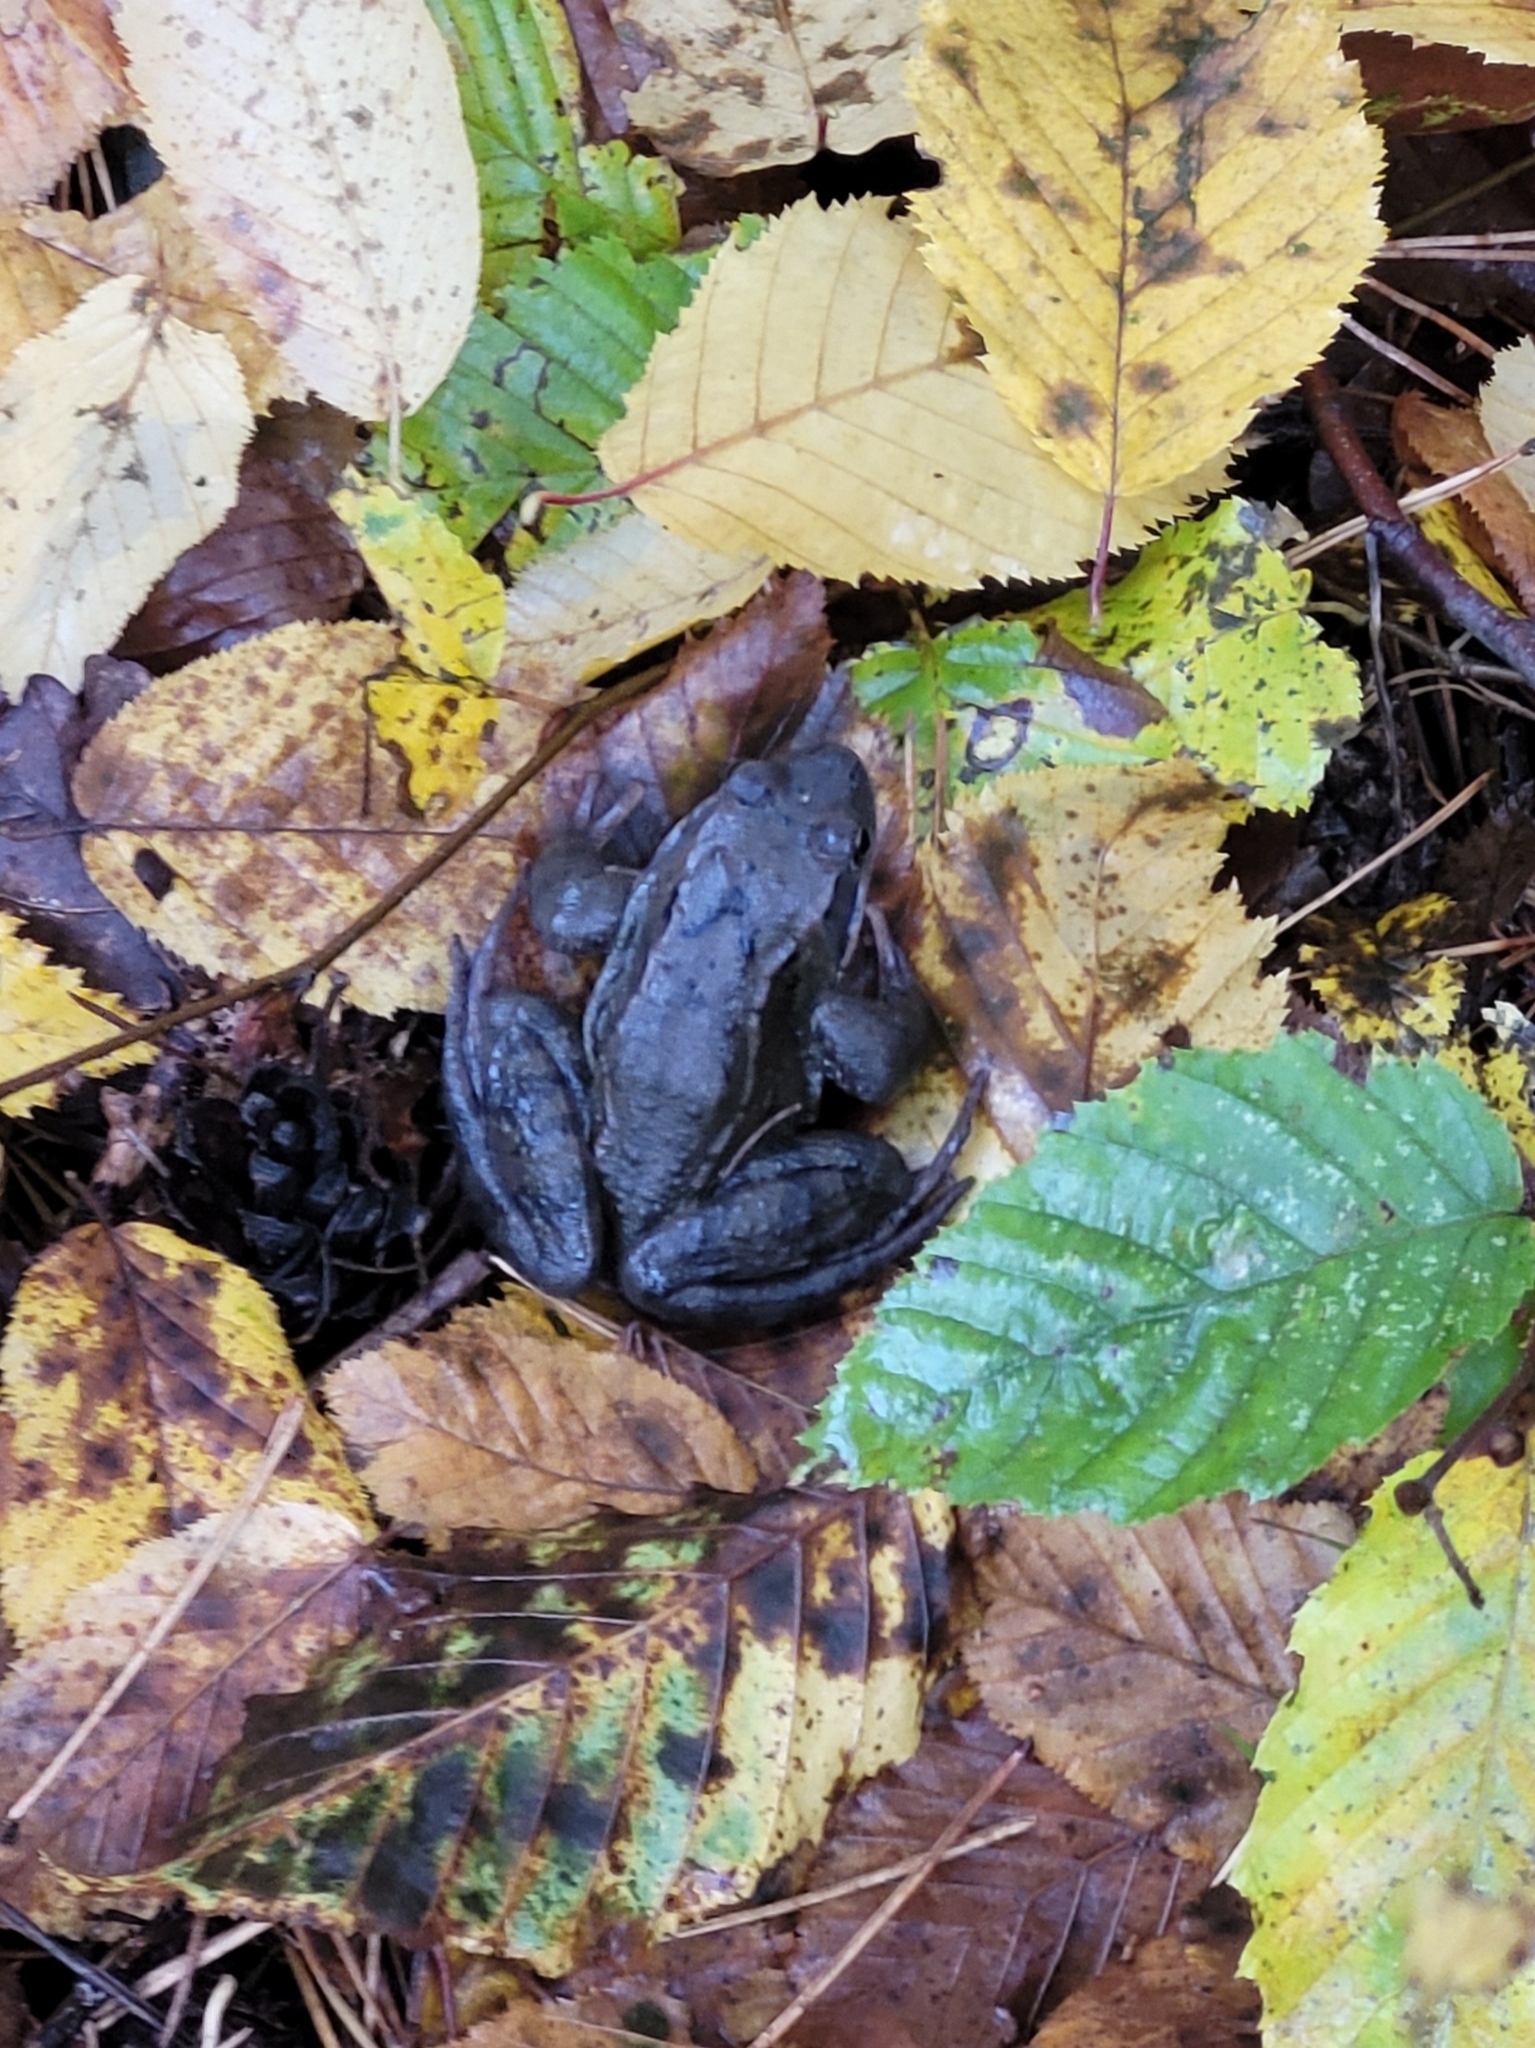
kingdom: Animalia
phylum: Chordata
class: Amphibia
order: Anura
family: Ranidae
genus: Rana
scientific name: Rana temporaria
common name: Common frog
